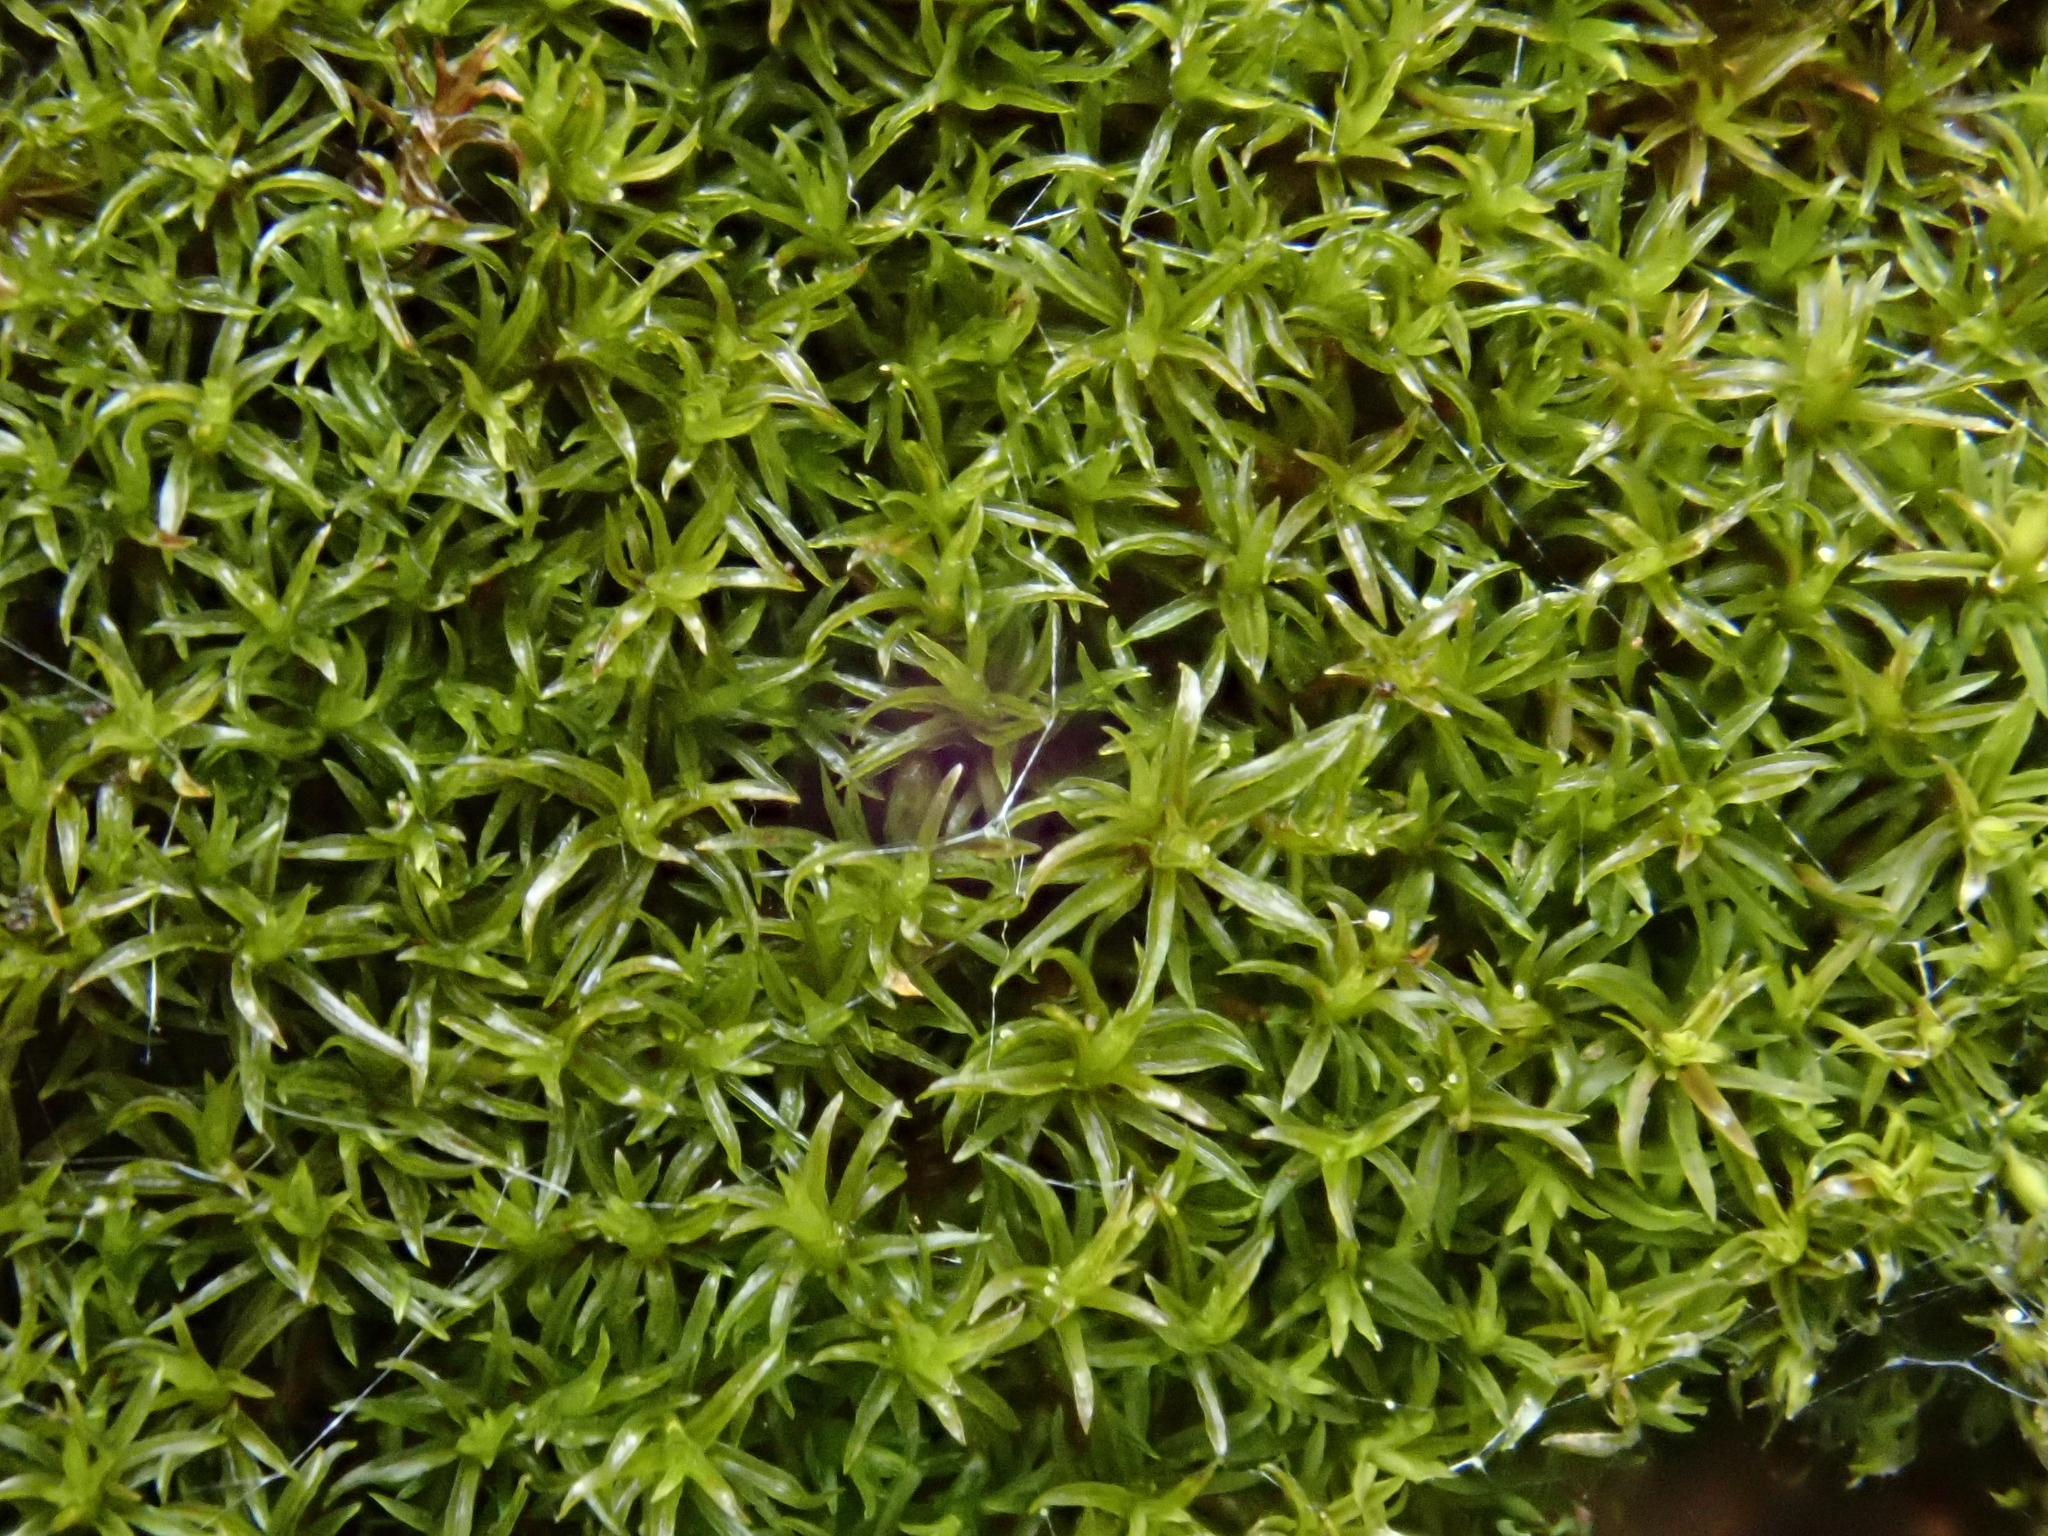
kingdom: Plantae
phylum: Bryophyta
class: Bryopsida
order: Pottiales
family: Pottiaceae
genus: Eucladium
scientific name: Eucladium verticillatum
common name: Whorled tufa-moss
